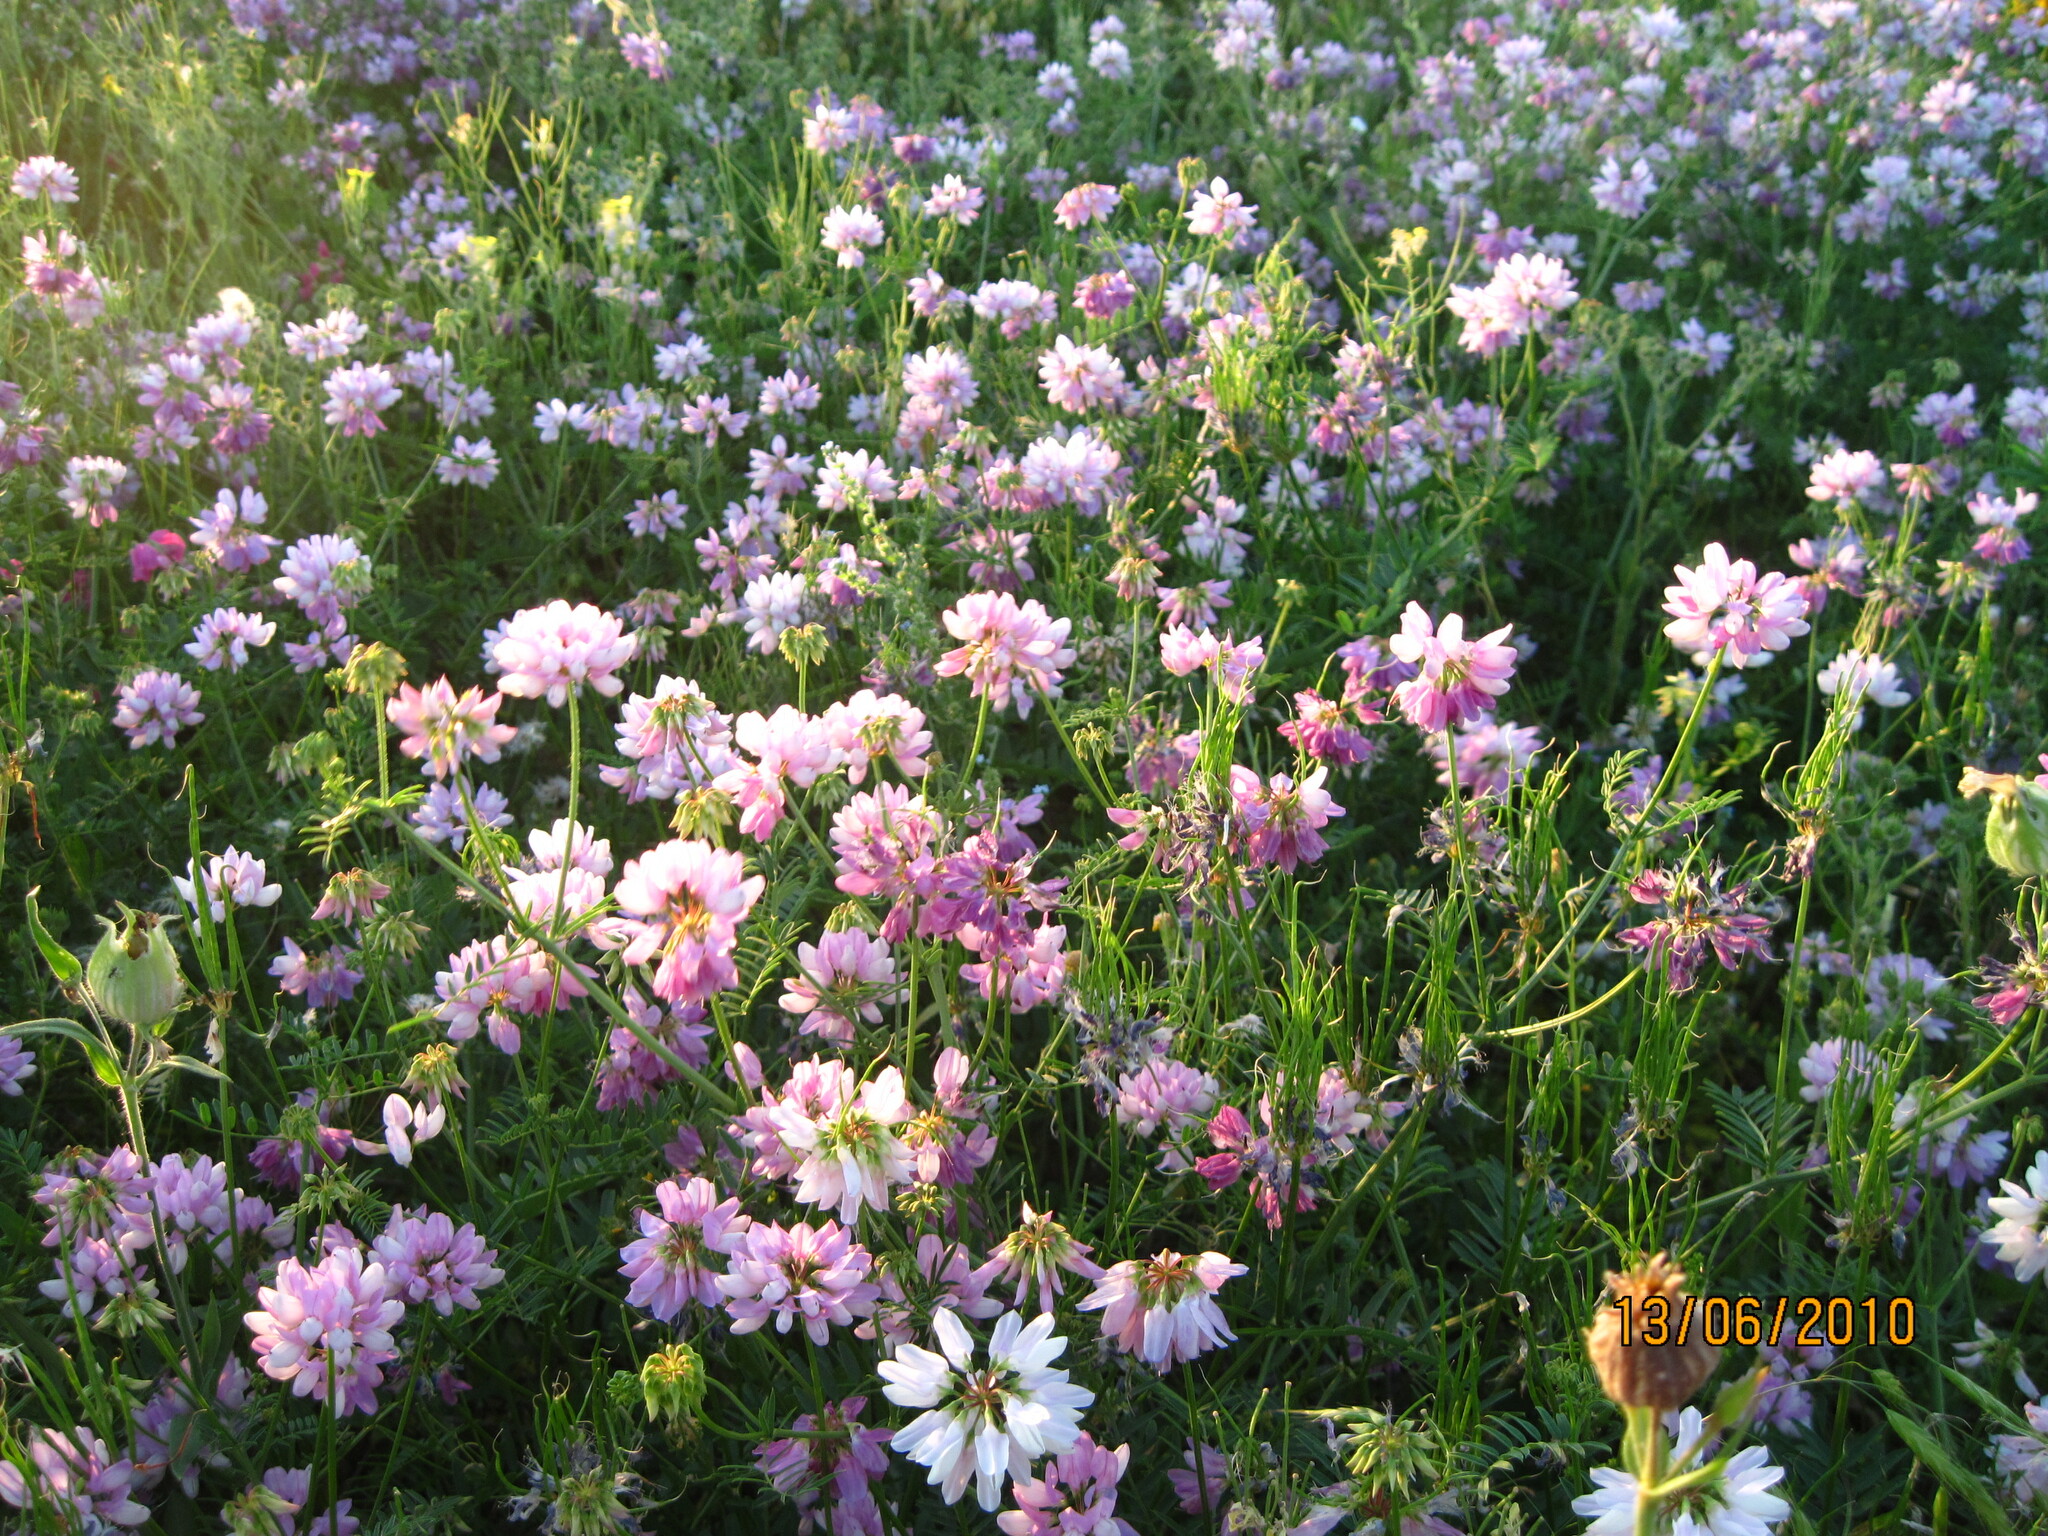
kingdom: Plantae
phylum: Tracheophyta
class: Magnoliopsida
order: Fabales
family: Fabaceae
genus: Coronilla
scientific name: Coronilla varia
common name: Crownvetch
